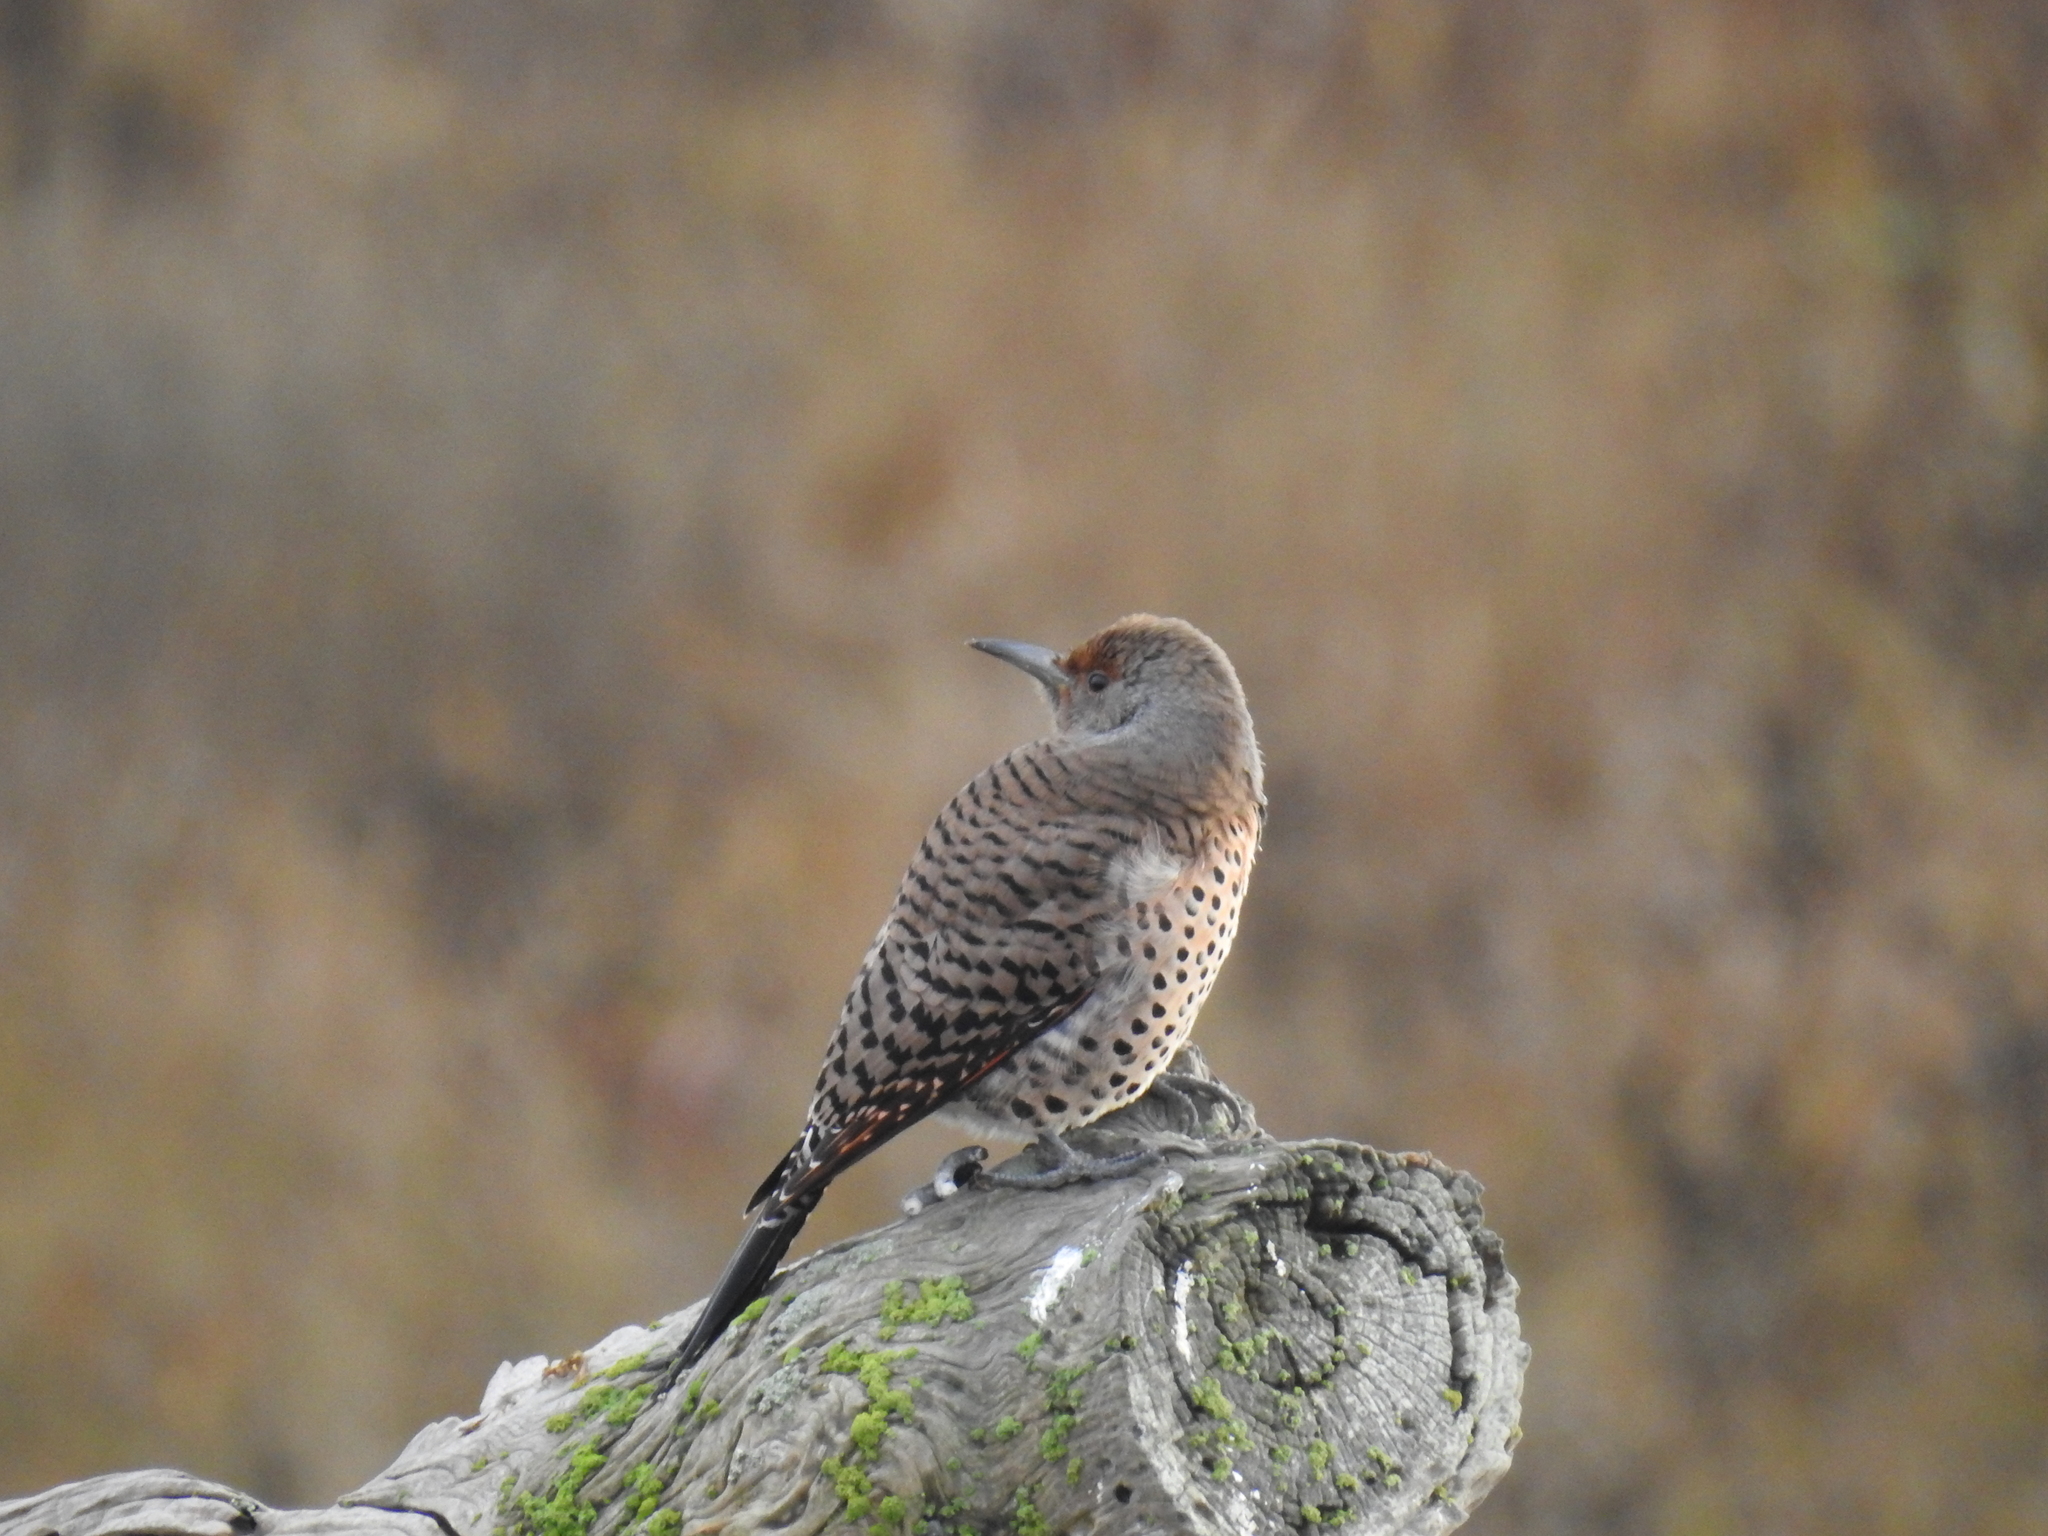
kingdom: Animalia
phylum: Chordata
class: Aves
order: Piciformes
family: Picidae
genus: Colaptes
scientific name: Colaptes auratus
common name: Northern flicker
